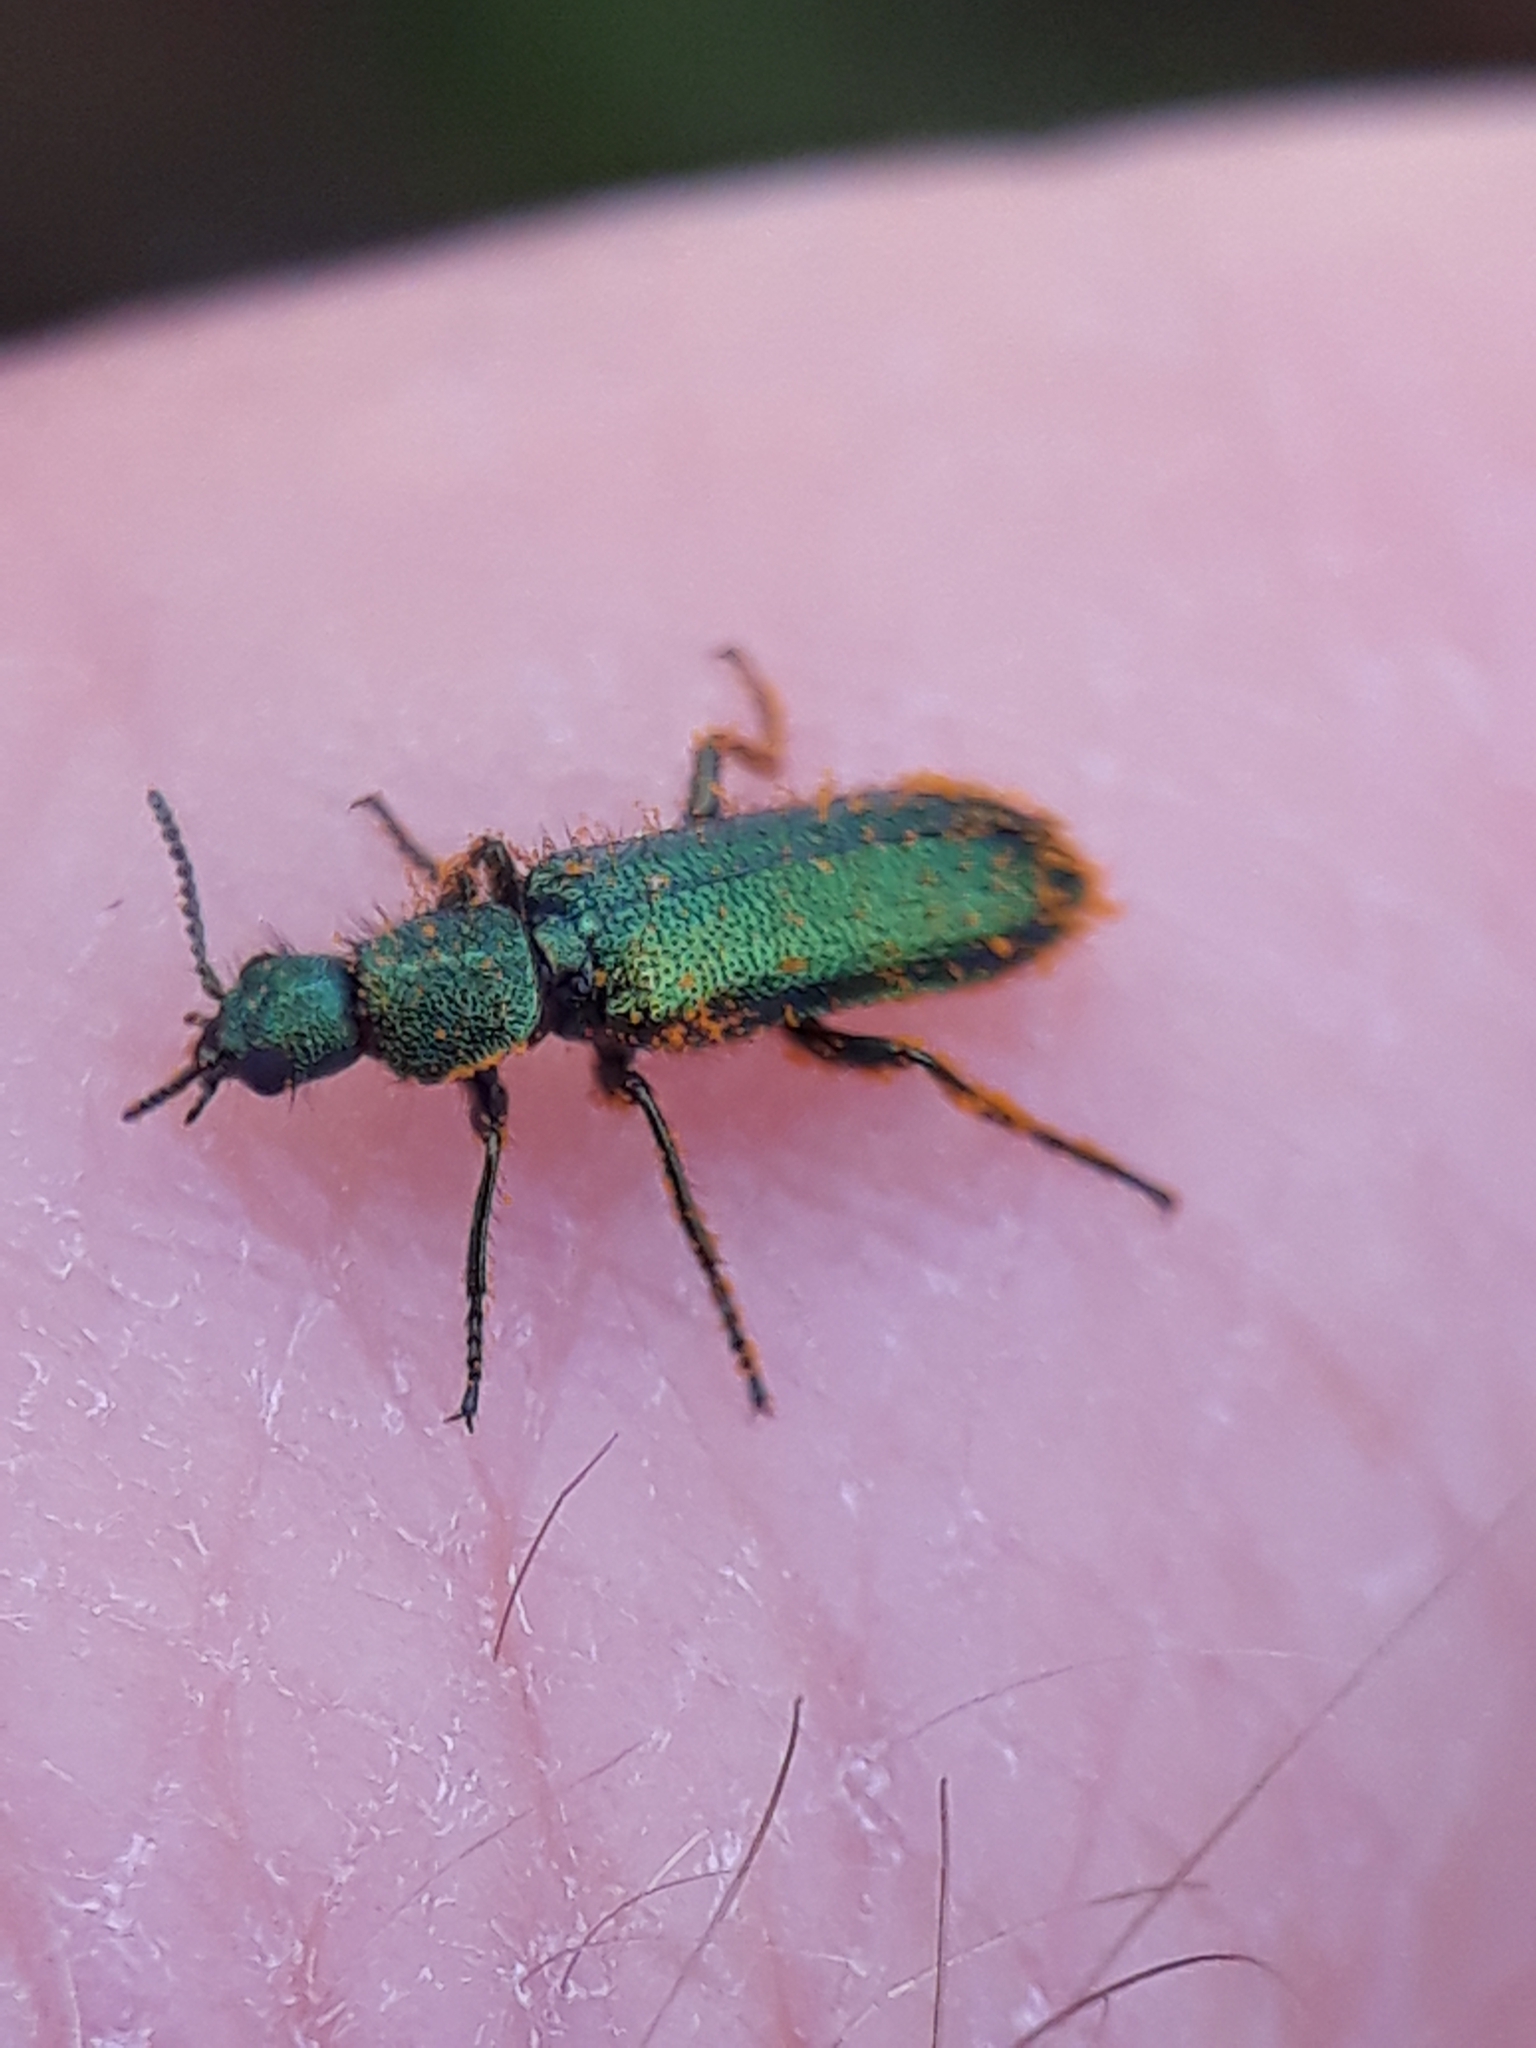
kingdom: Animalia
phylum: Arthropoda
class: Insecta
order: Coleoptera
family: Dasytidae
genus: Psilothrix
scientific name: Psilothrix viridicoerulea
